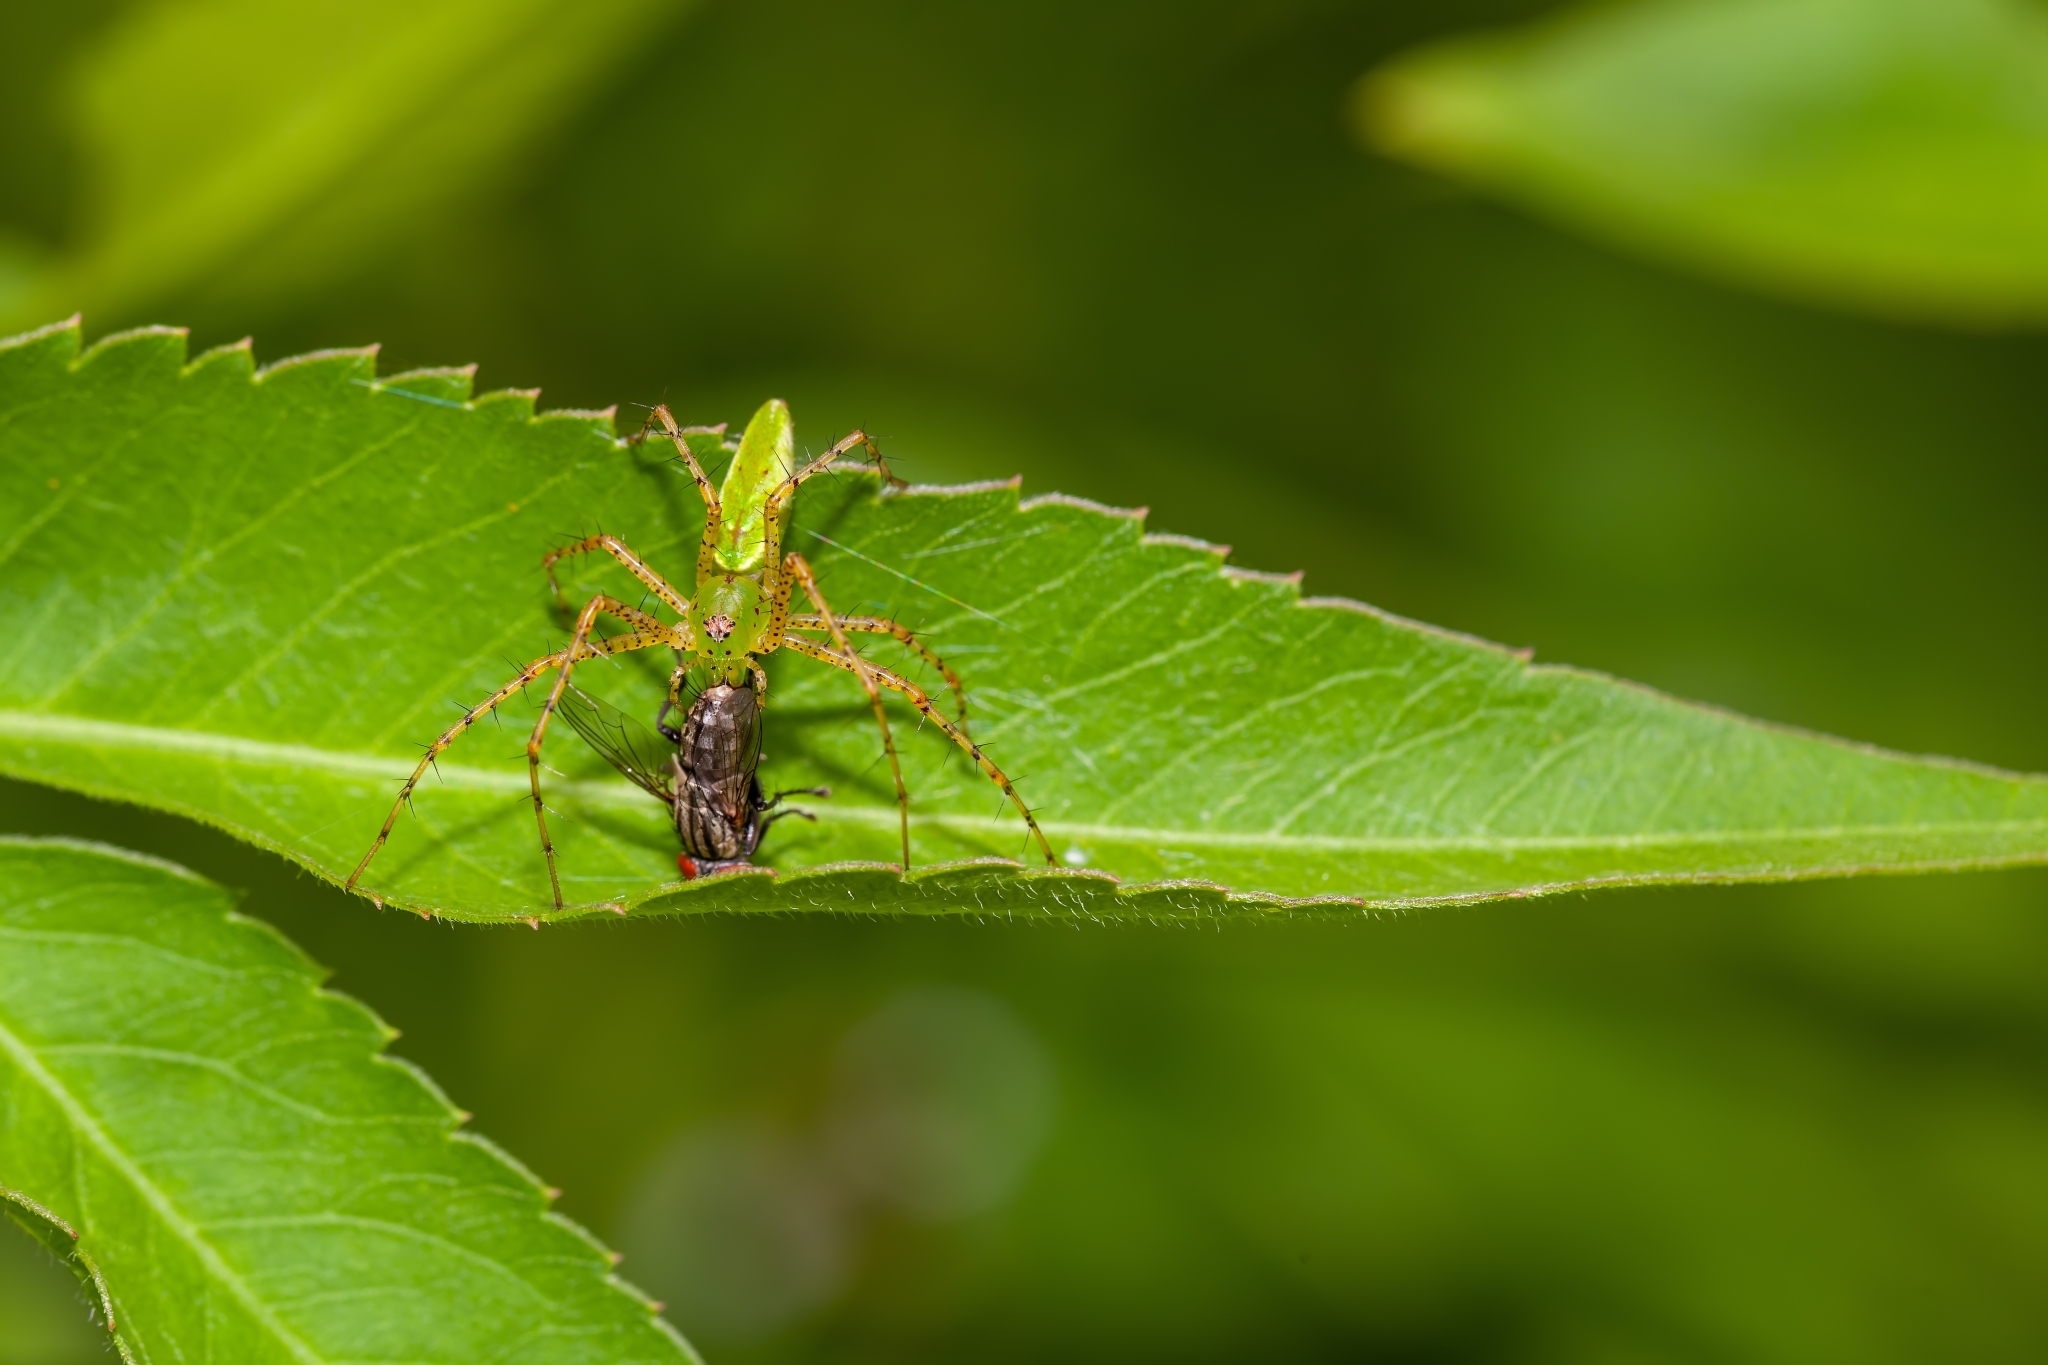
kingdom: Animalia
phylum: Arthropoda
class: Arachnida
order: Araneae
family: Oxyopidae
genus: Peucetia
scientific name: Peucetia viridans
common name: Lynx spiders
